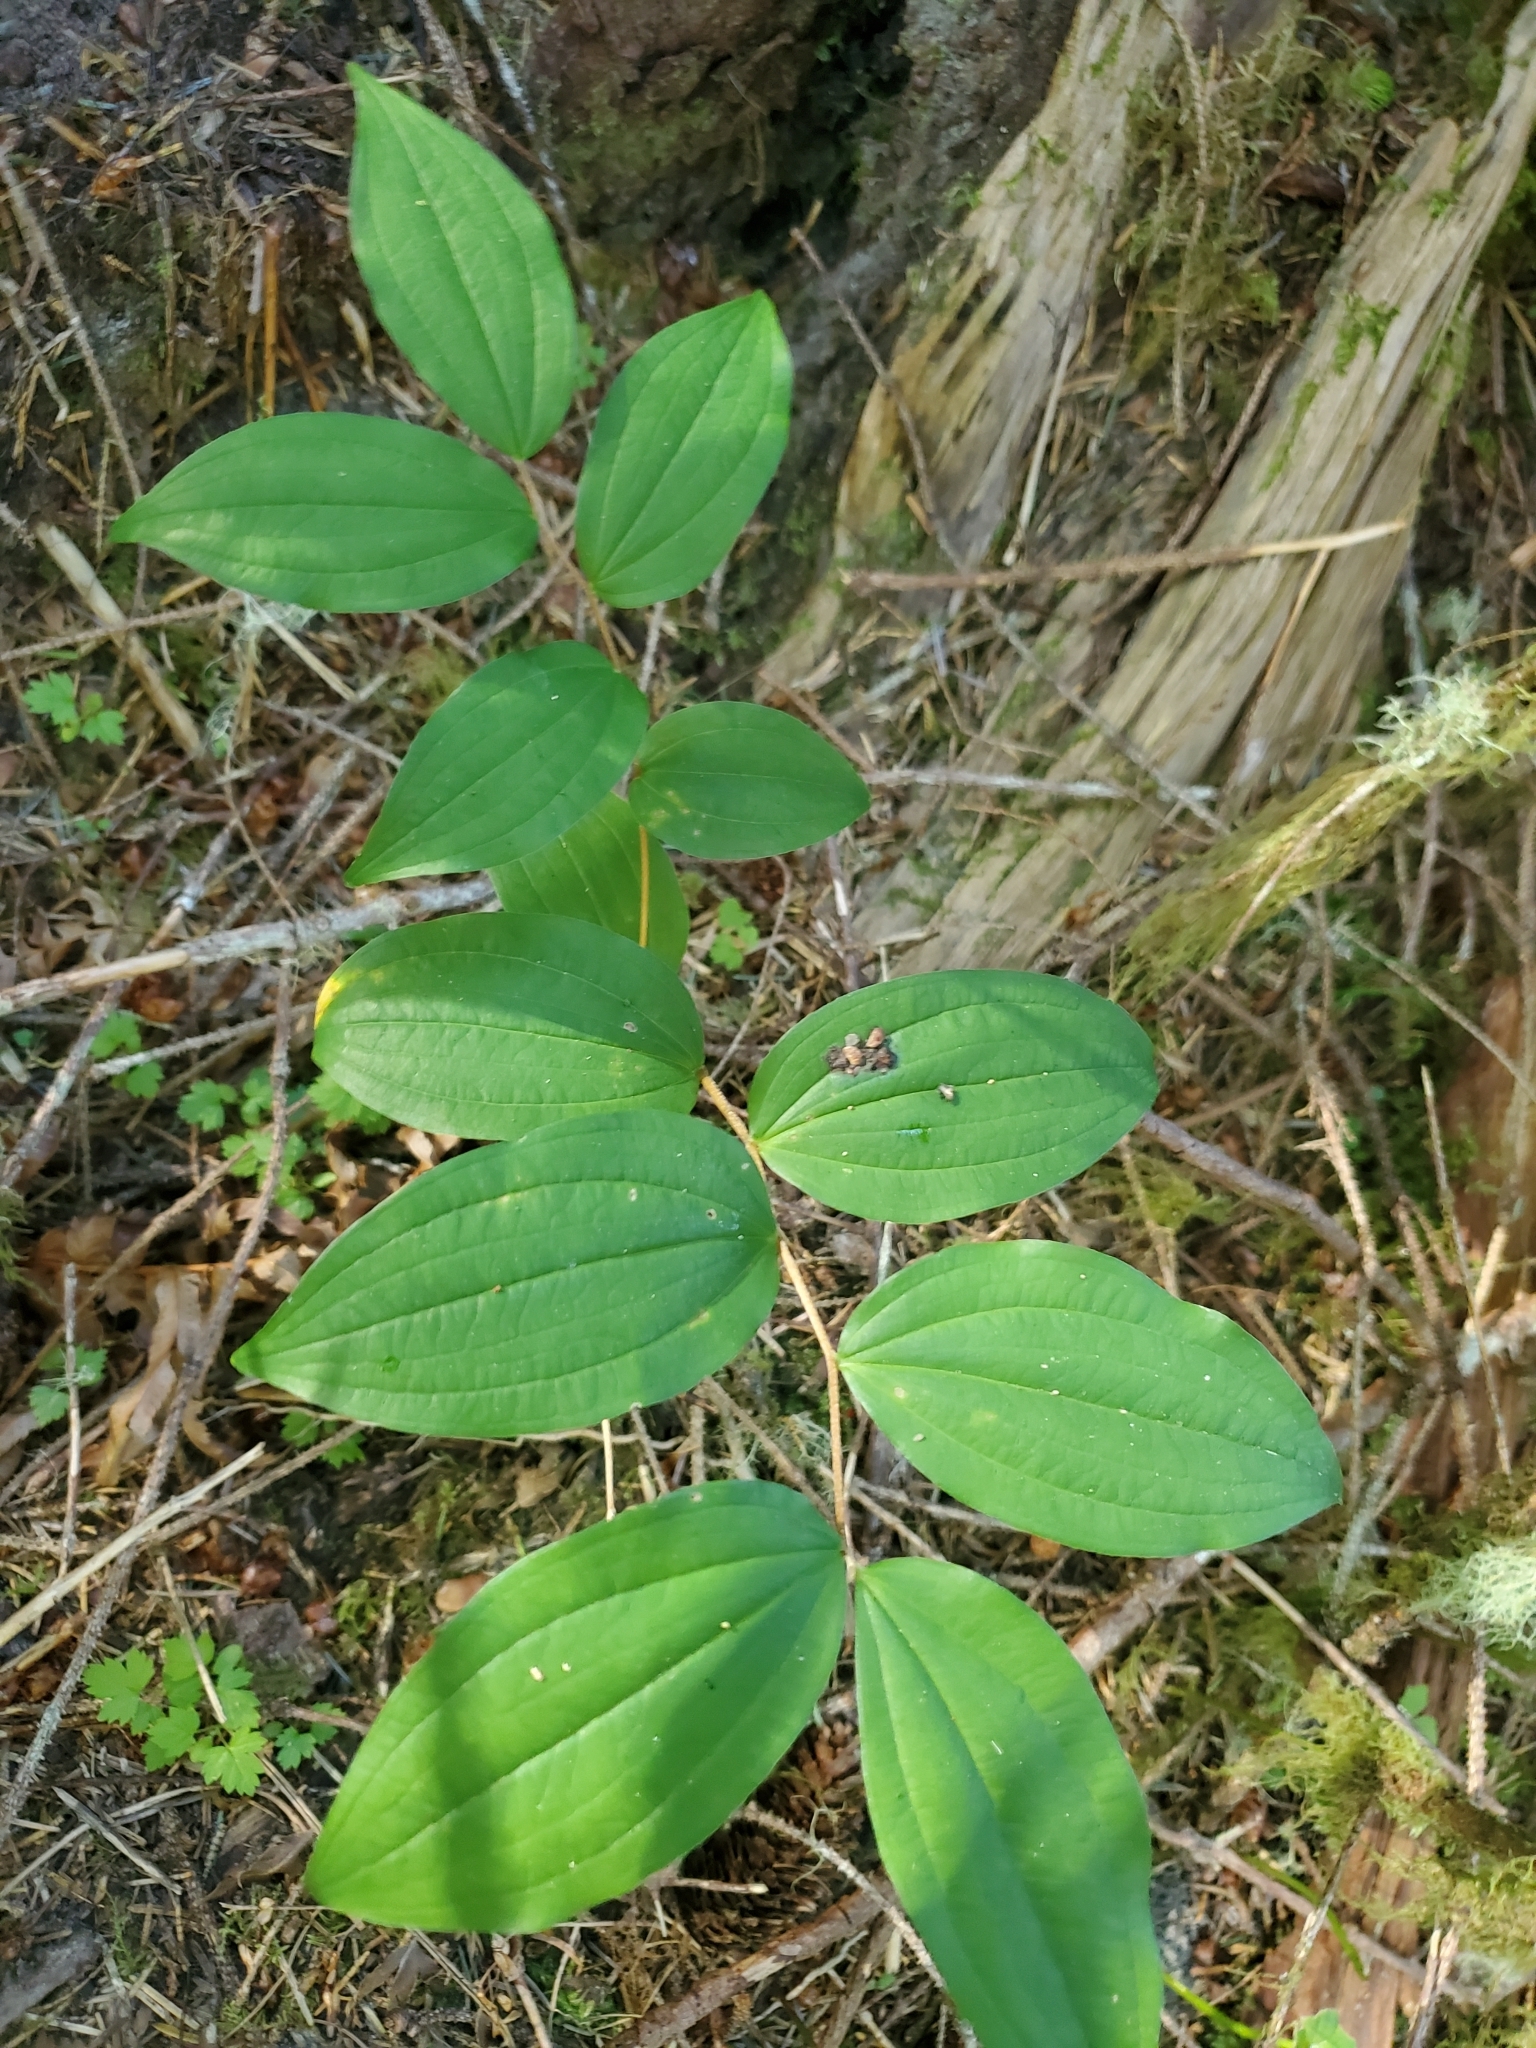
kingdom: Plantae
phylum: Tracheophyta
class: Liliopsida
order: Liliales
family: Liliaceae
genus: Prosartes
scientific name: Prosartes smithii
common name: Fairy-lantern
